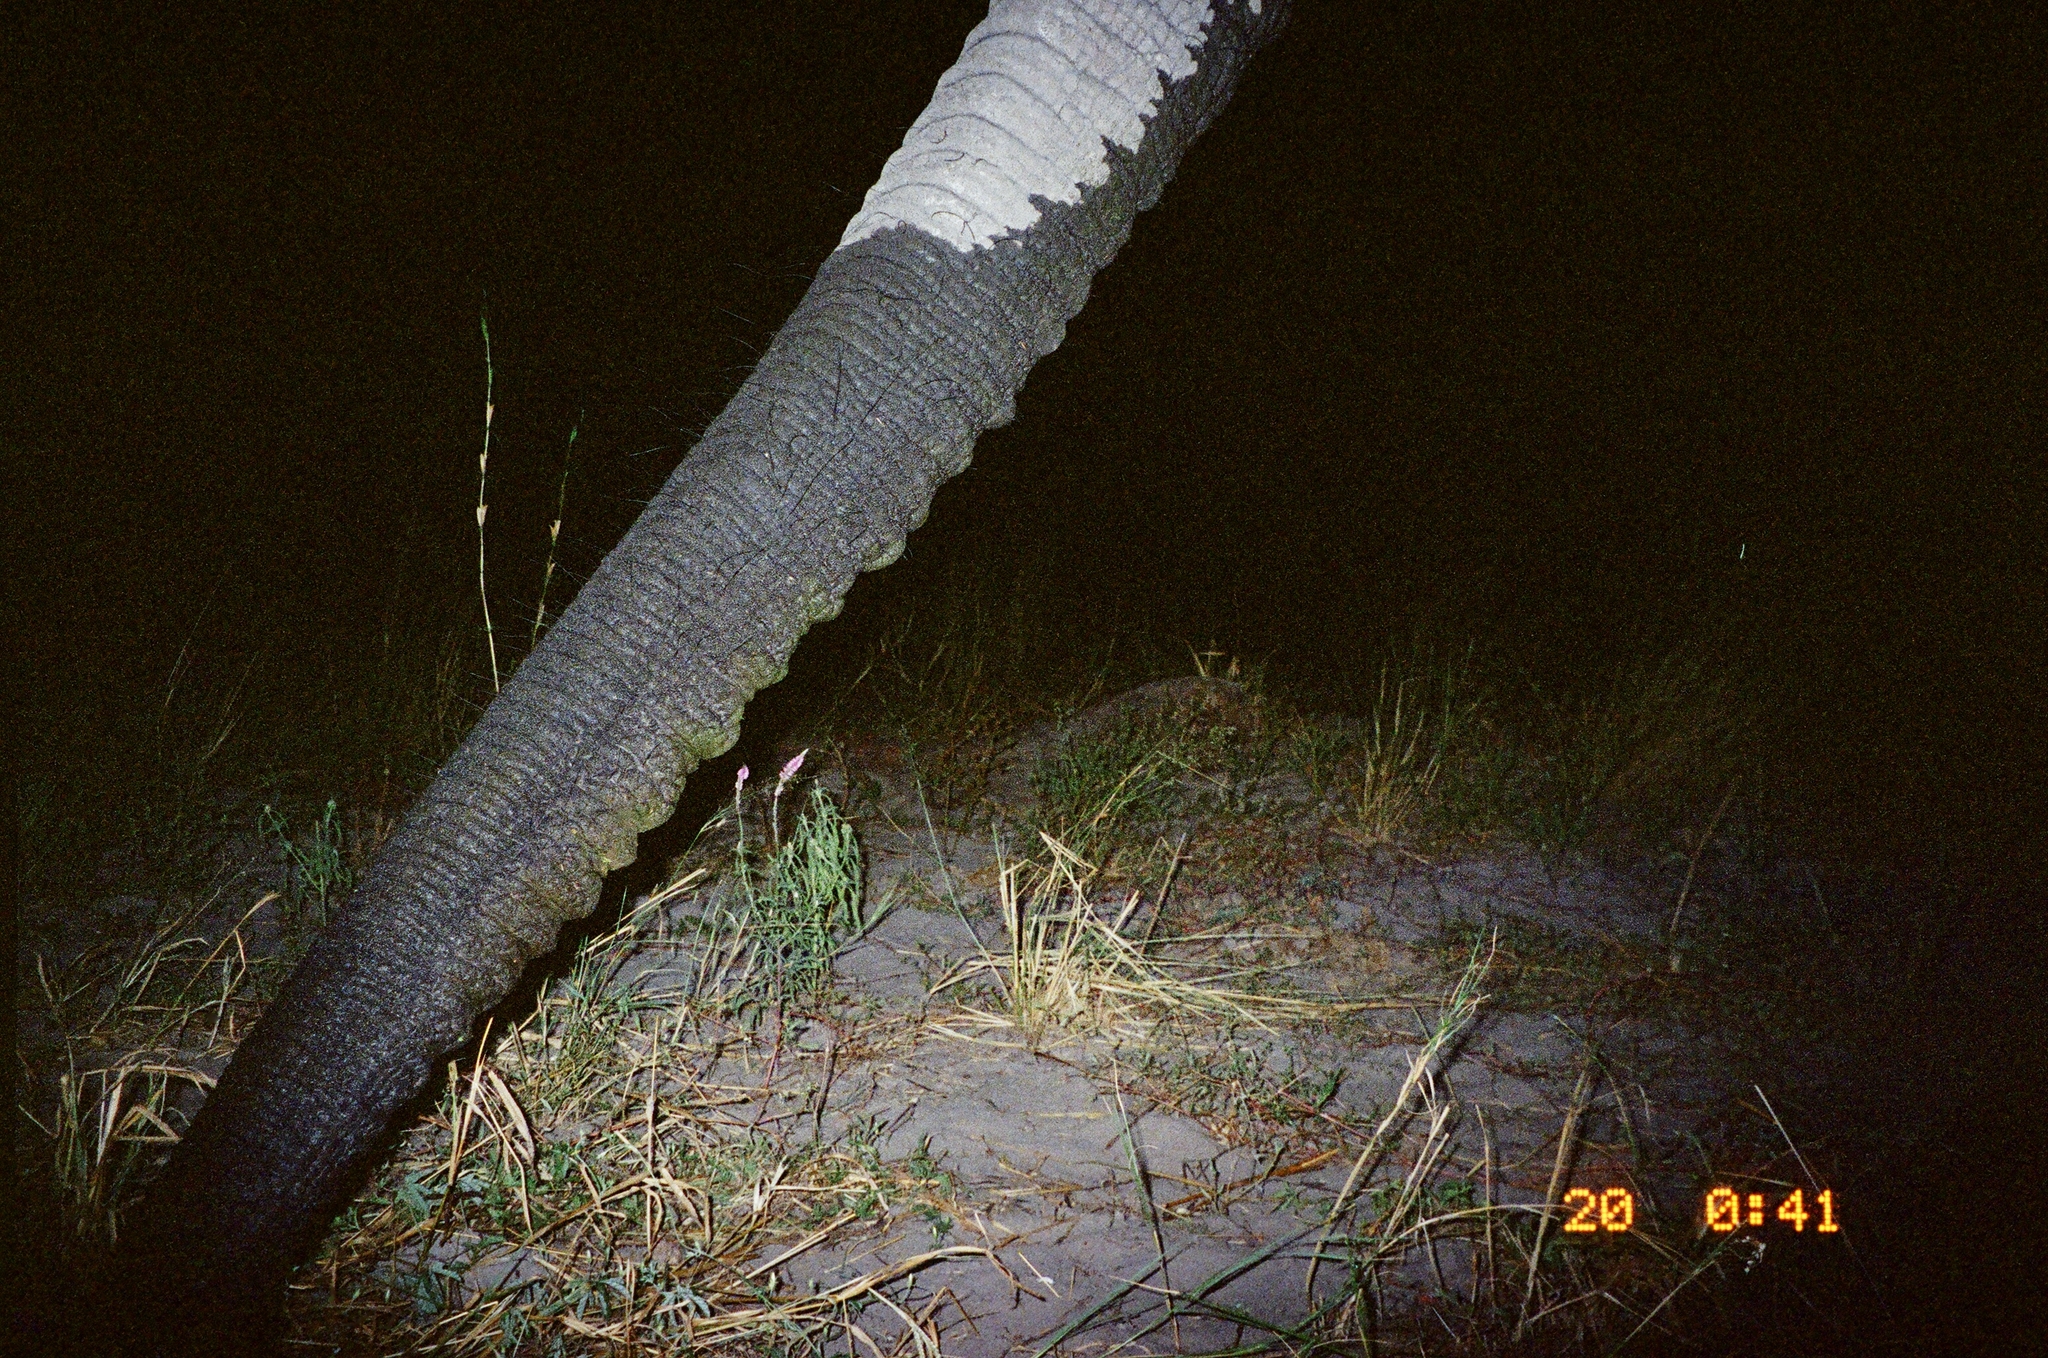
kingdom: Animalia
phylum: Chordata
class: Mammalia
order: Proboscidea
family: Elephantidae
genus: Loxodonta
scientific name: Loxodonta africana
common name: African elephant
